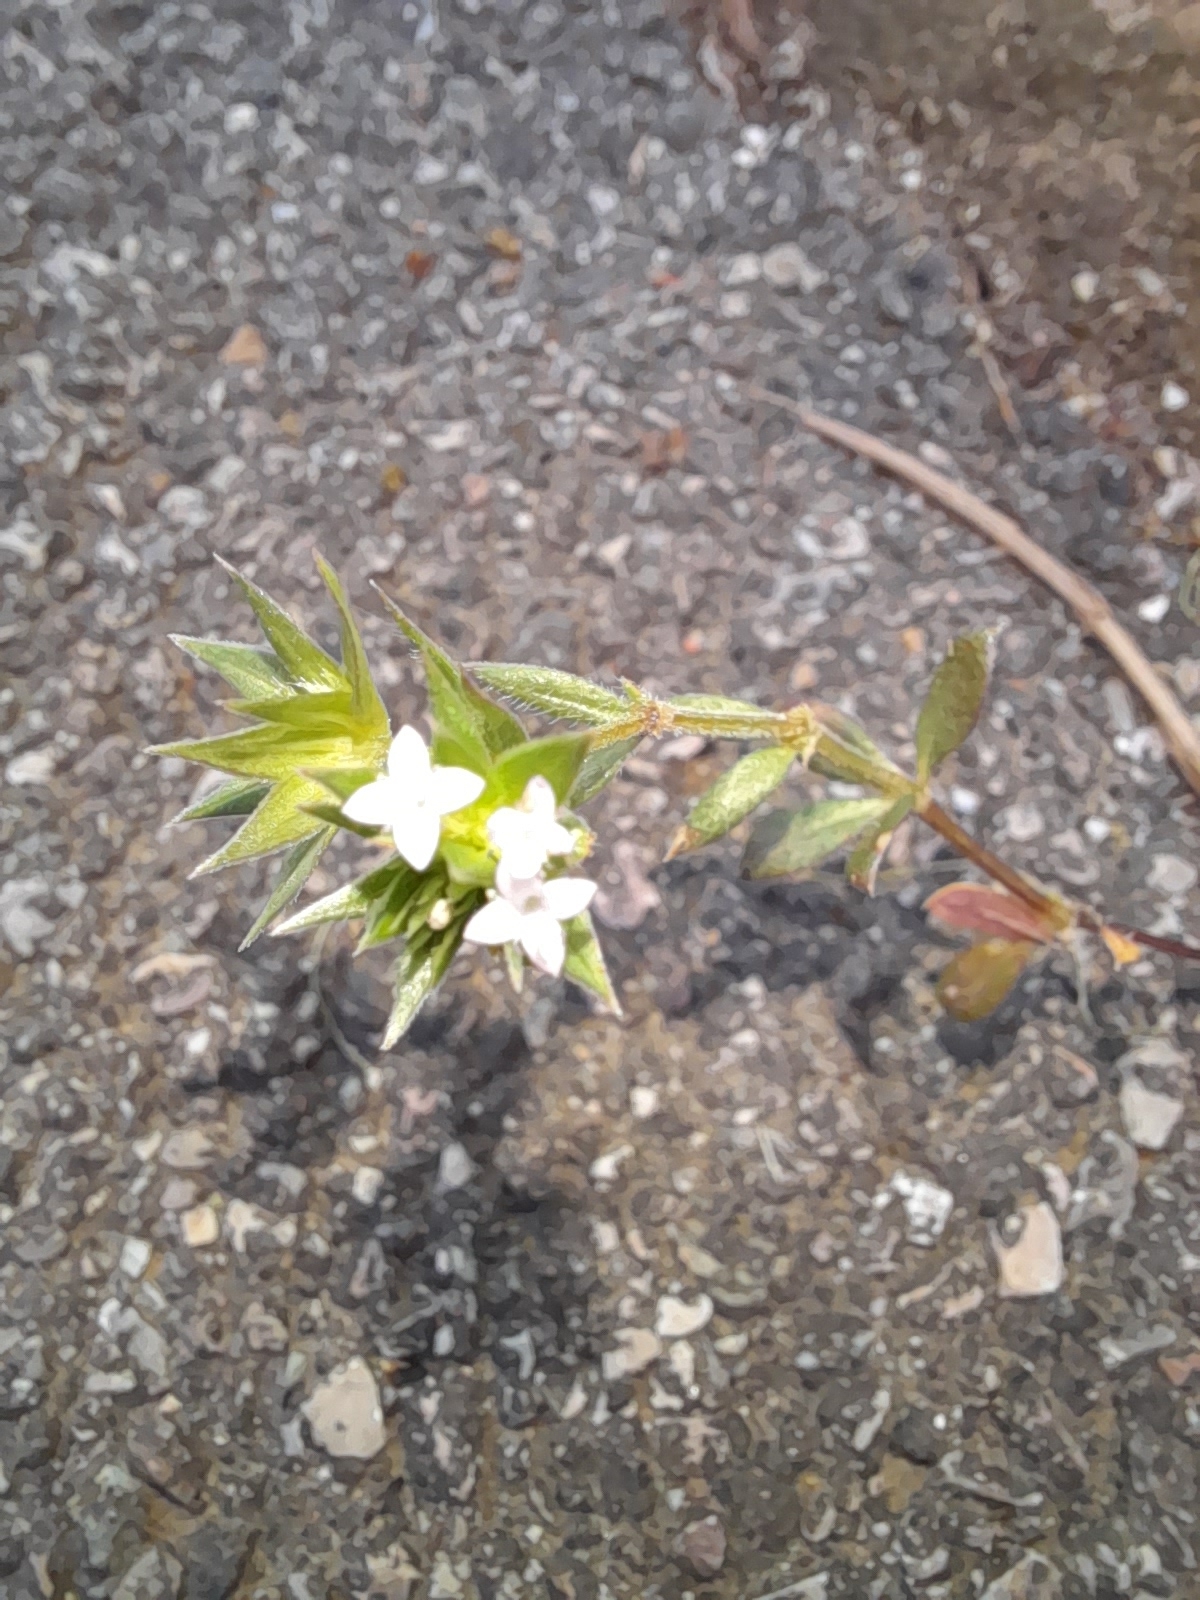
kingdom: Plantae
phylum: Tracheophyta
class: Magnoliopsida
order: Gentianales
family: Rubiaceae
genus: Sherardia
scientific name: Sherardia arvensis
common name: Field madder
